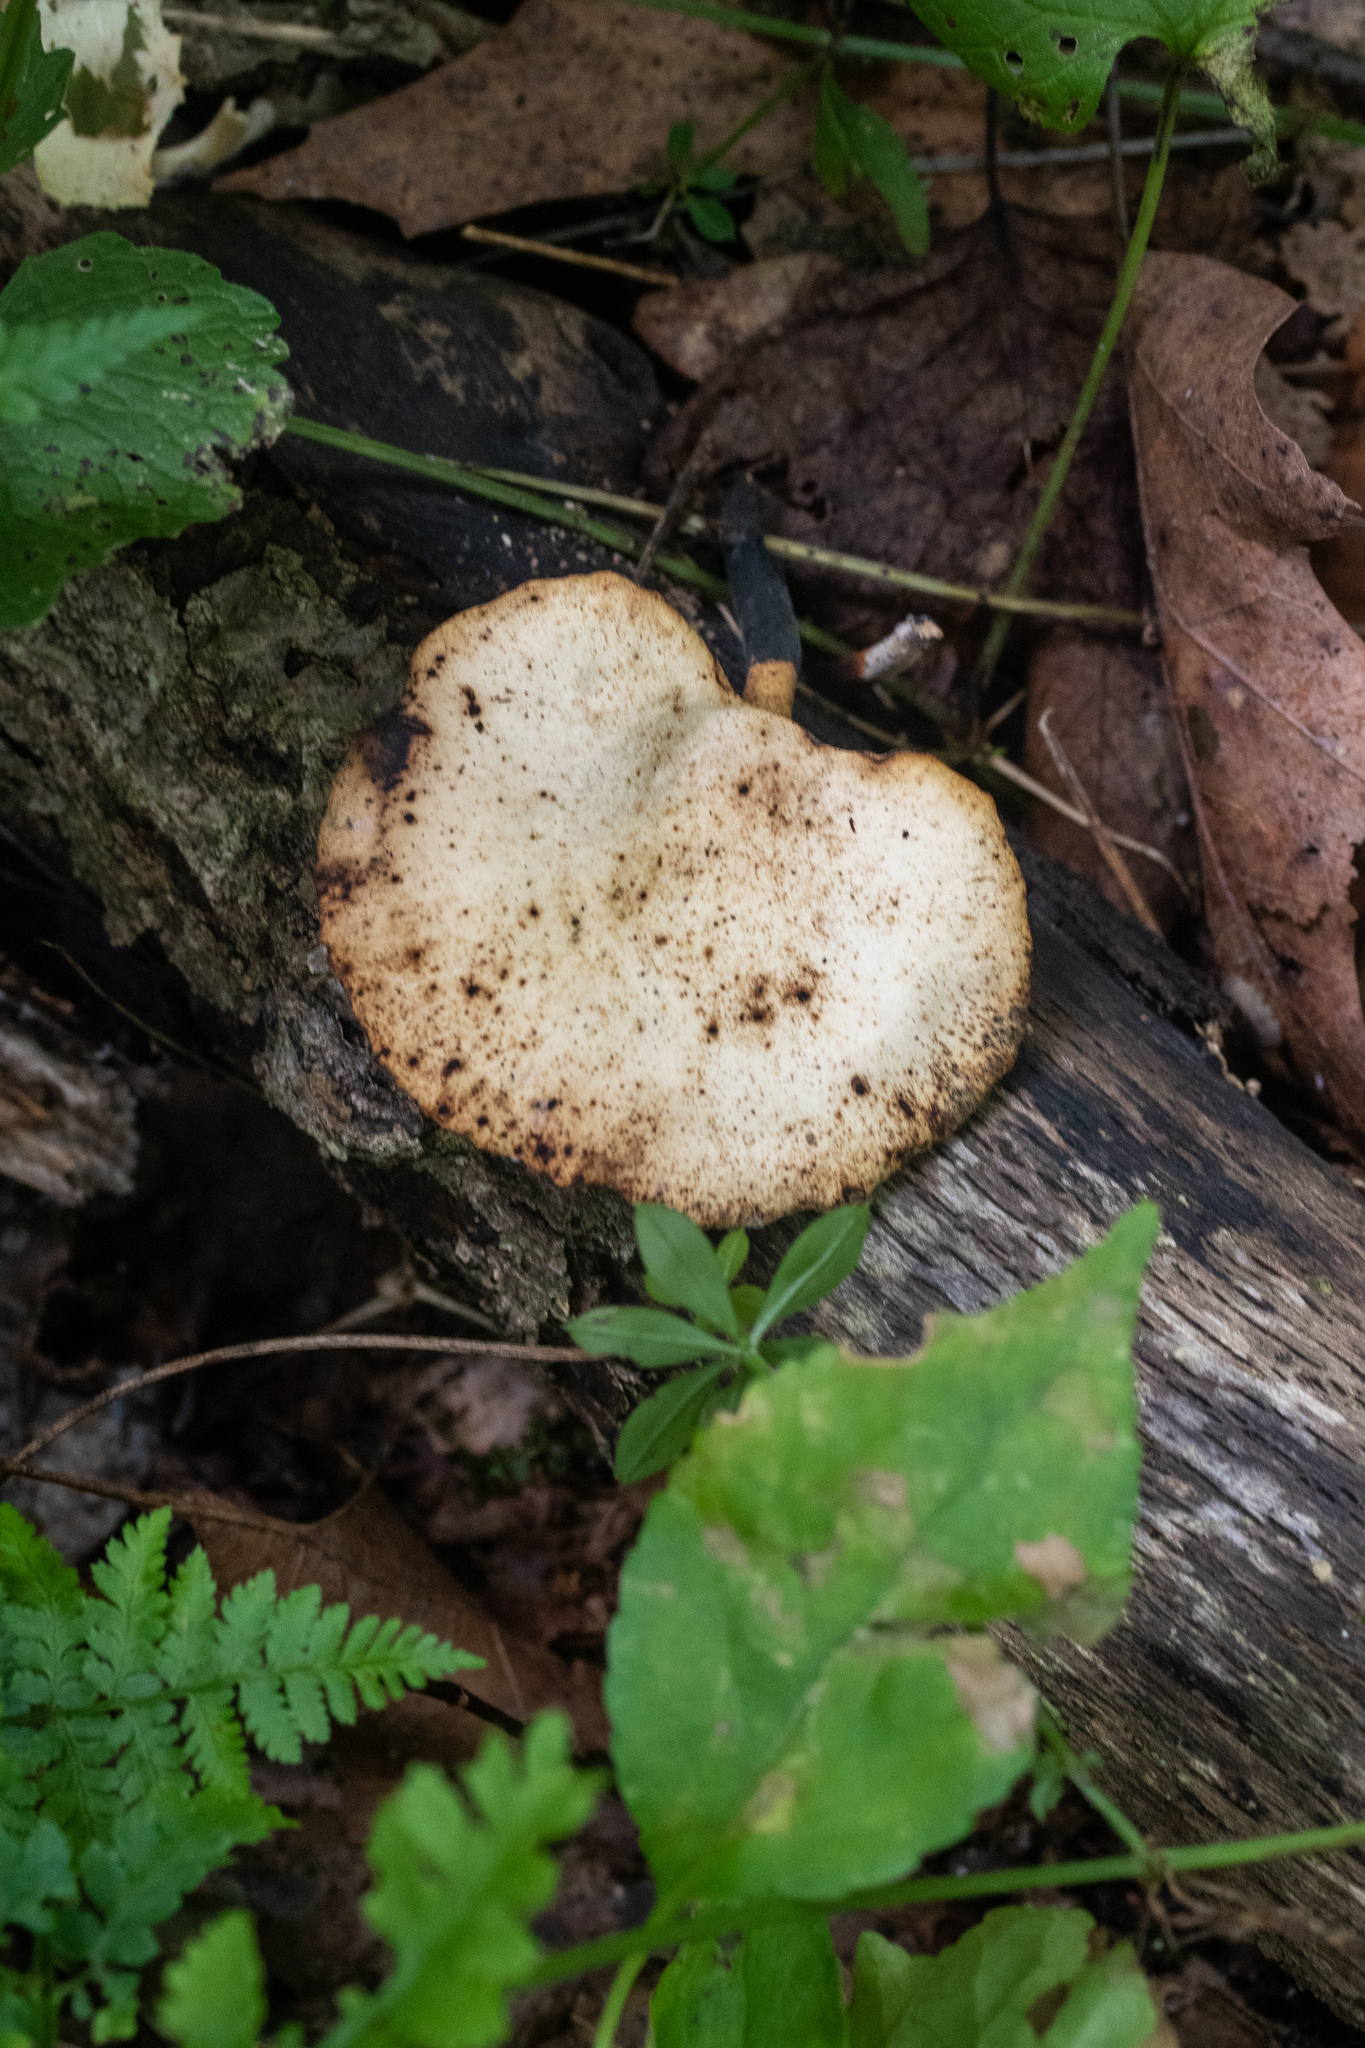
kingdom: Fungi
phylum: Basidiomycota
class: Agaricomycetes
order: Polyporales
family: Polyporaceae
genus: Cerioporus
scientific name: Cerioporus leptocephalus
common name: Blackfoot polypore
